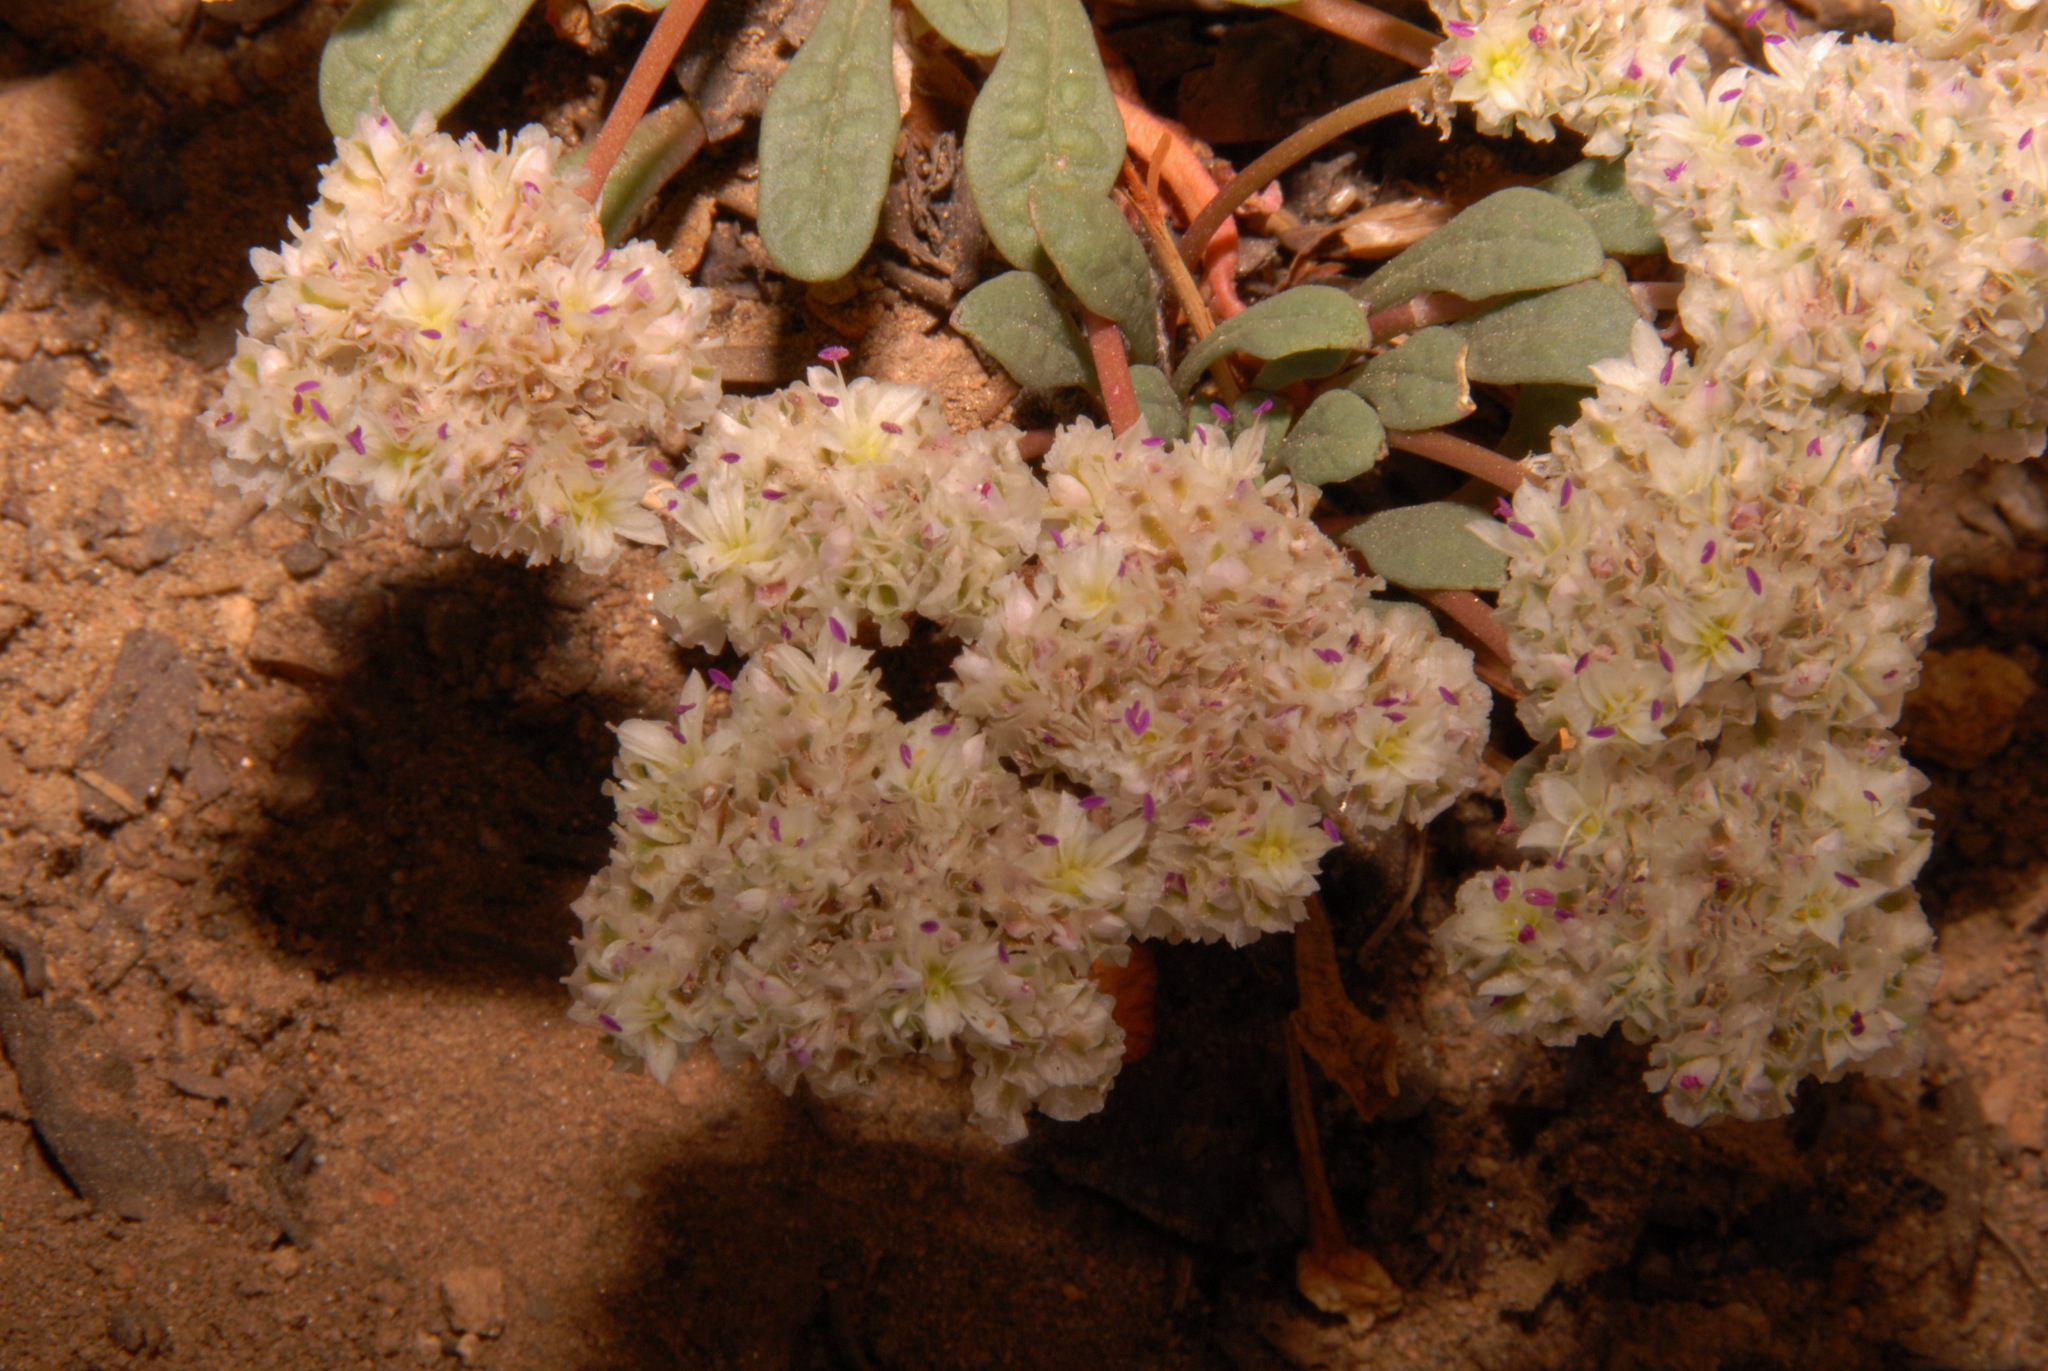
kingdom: Plantae
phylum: Tracheophyta
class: Magnoliopsida
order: Caryophyllales
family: Montiaceae
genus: Calyptridium
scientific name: Calyptridium monospermum
